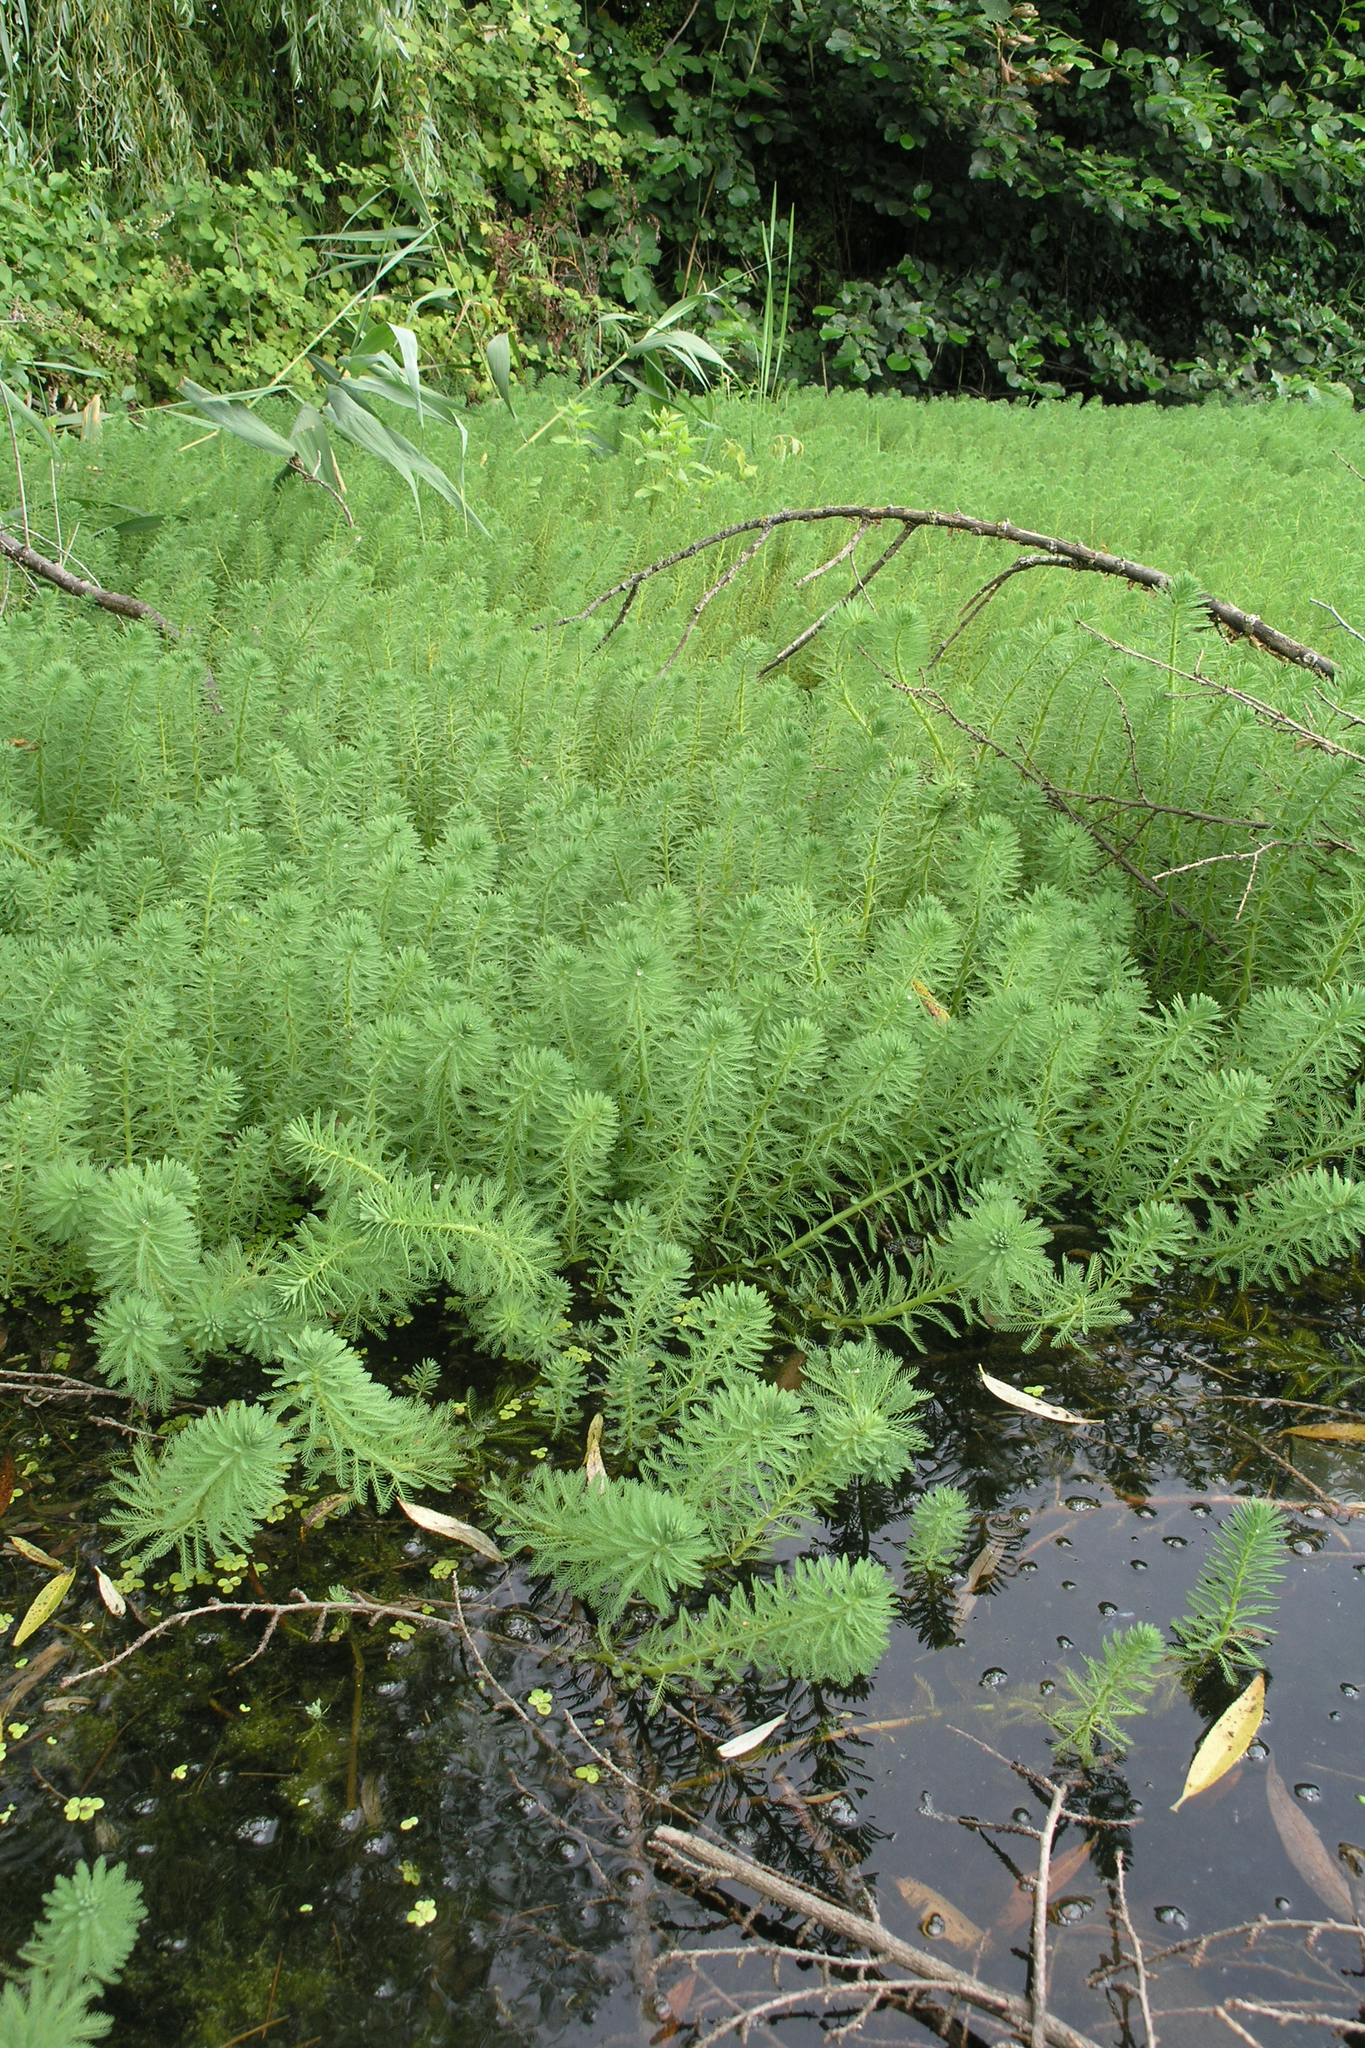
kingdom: Plantae
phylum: Tracheophyta
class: Magnoliopsida
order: Saxifragales
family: Haloragaceae
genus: Myriophyllum
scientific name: Myriophyllum aquaticum
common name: Parrot's feather
